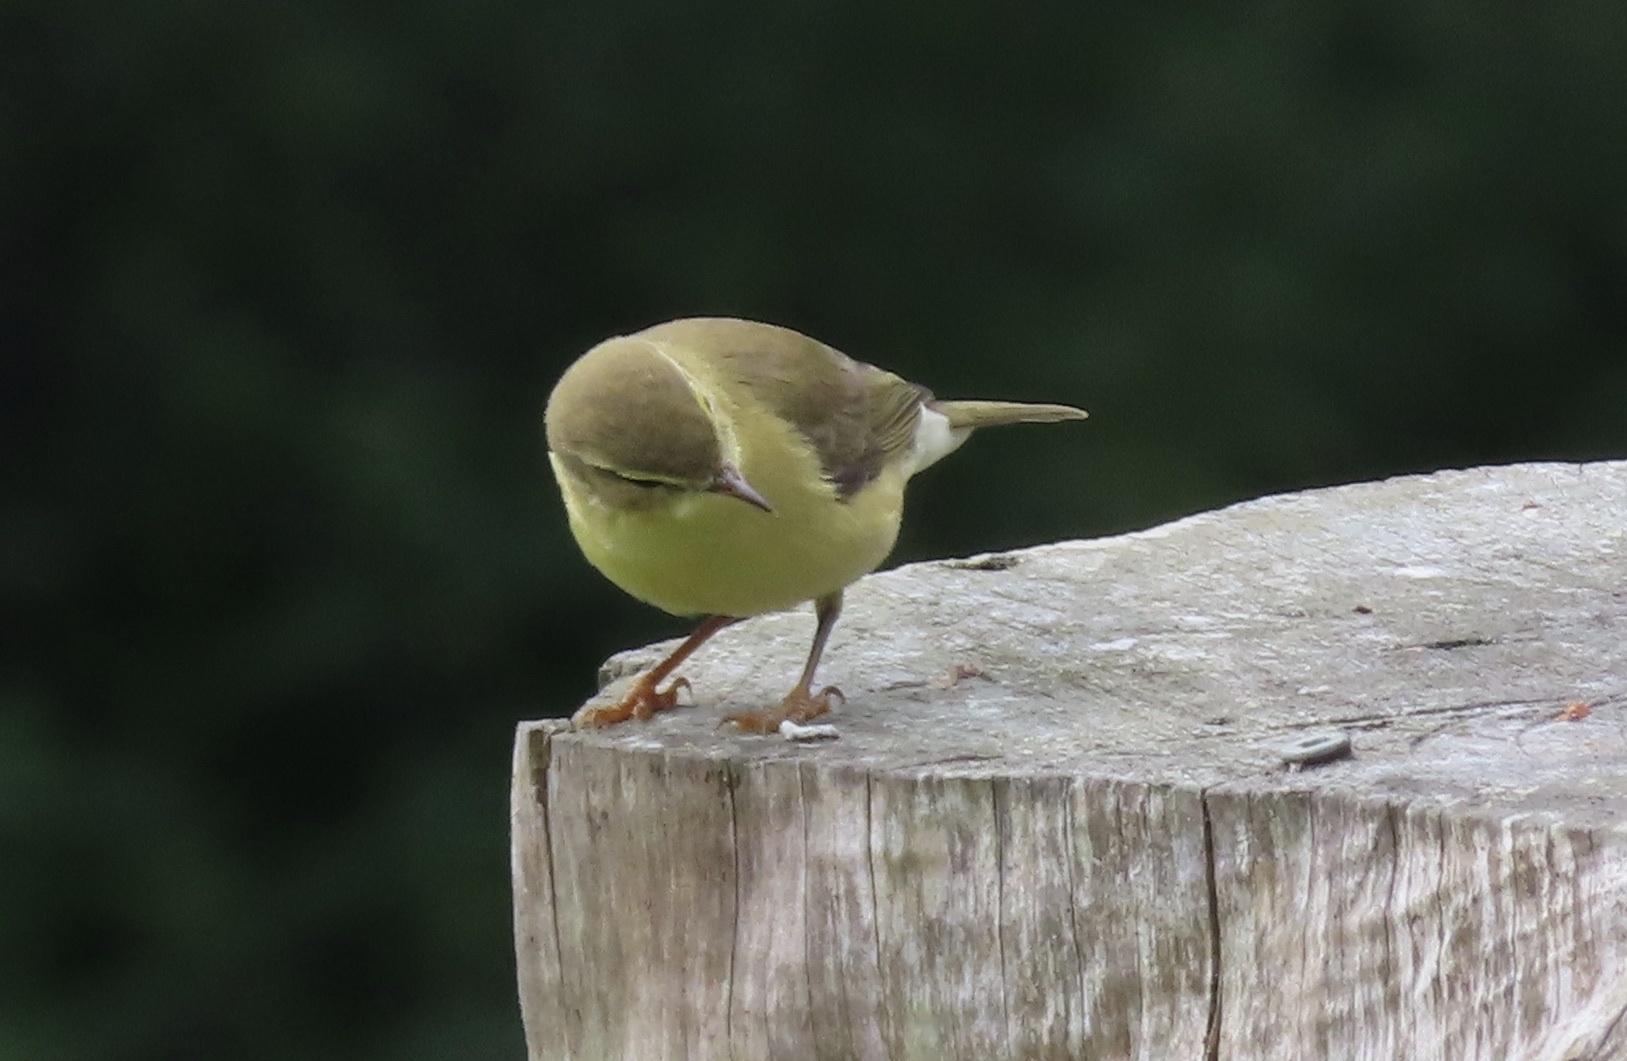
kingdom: Animalia
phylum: Chordata
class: Aves
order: Passeriformes
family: Phylloscopidae
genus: Phylloscopus
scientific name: Phylloscopus trochilus
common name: Willow warbler
